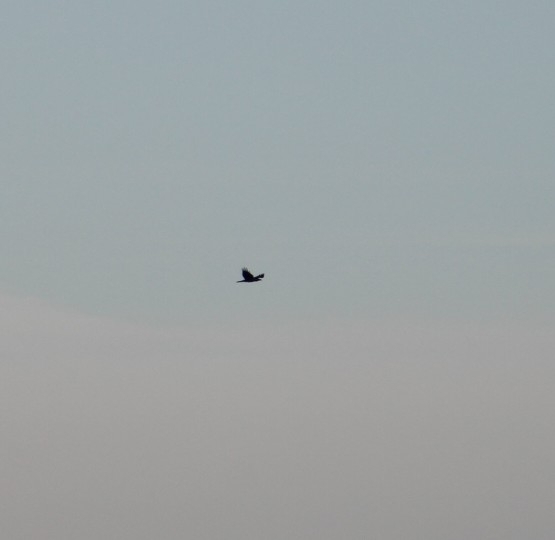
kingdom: Animalia
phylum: Chordata
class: Aves
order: Passeriformes
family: Corvidae
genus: Corvus
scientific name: Corvus corax
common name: Common raven
